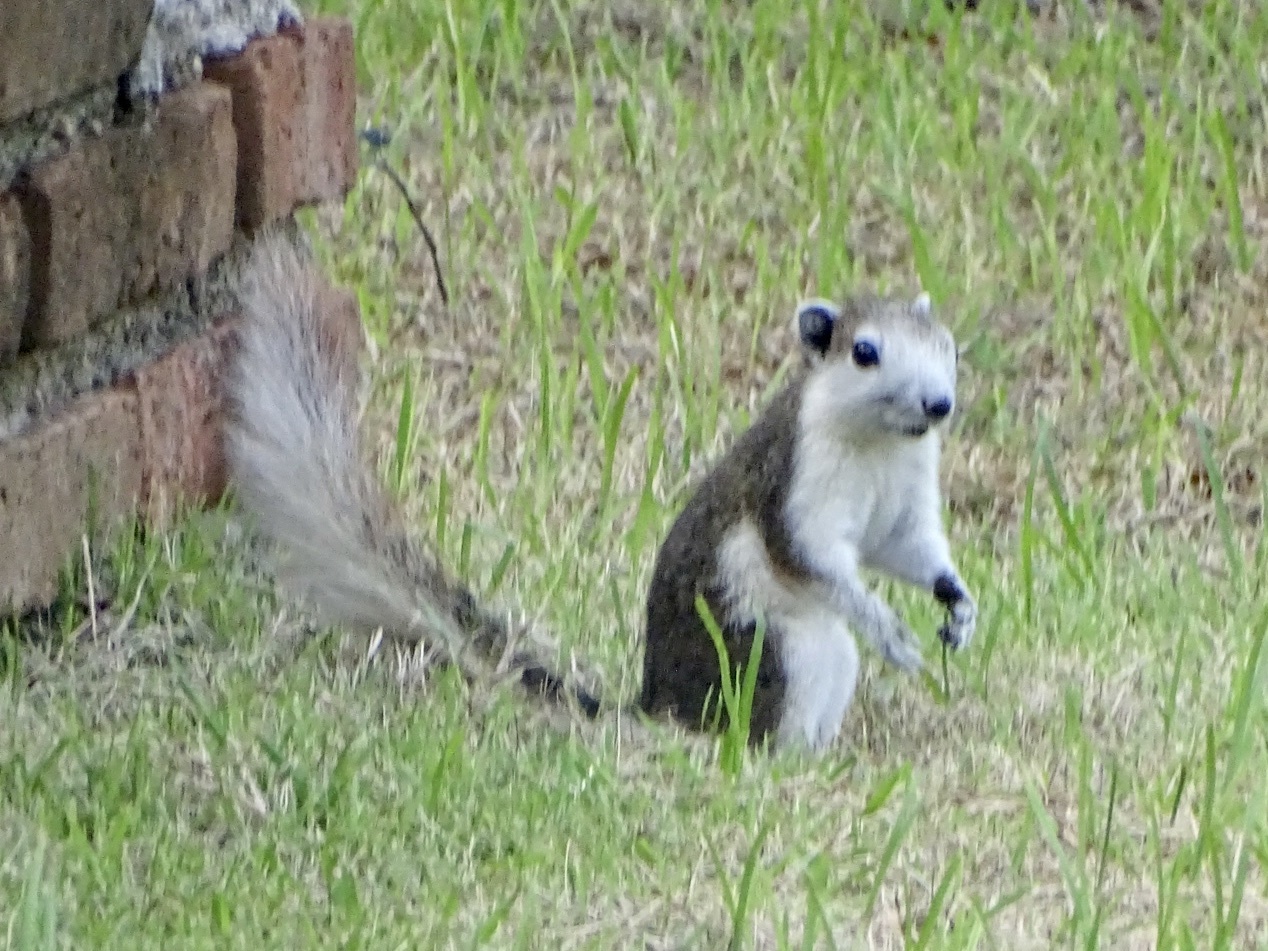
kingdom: Animalia
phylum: Chordata
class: Mammalia
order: Rodentia
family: Sciuridae
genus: Callosciurus
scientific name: Callosciurus finlaysonii
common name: Finlayson's squirrel
